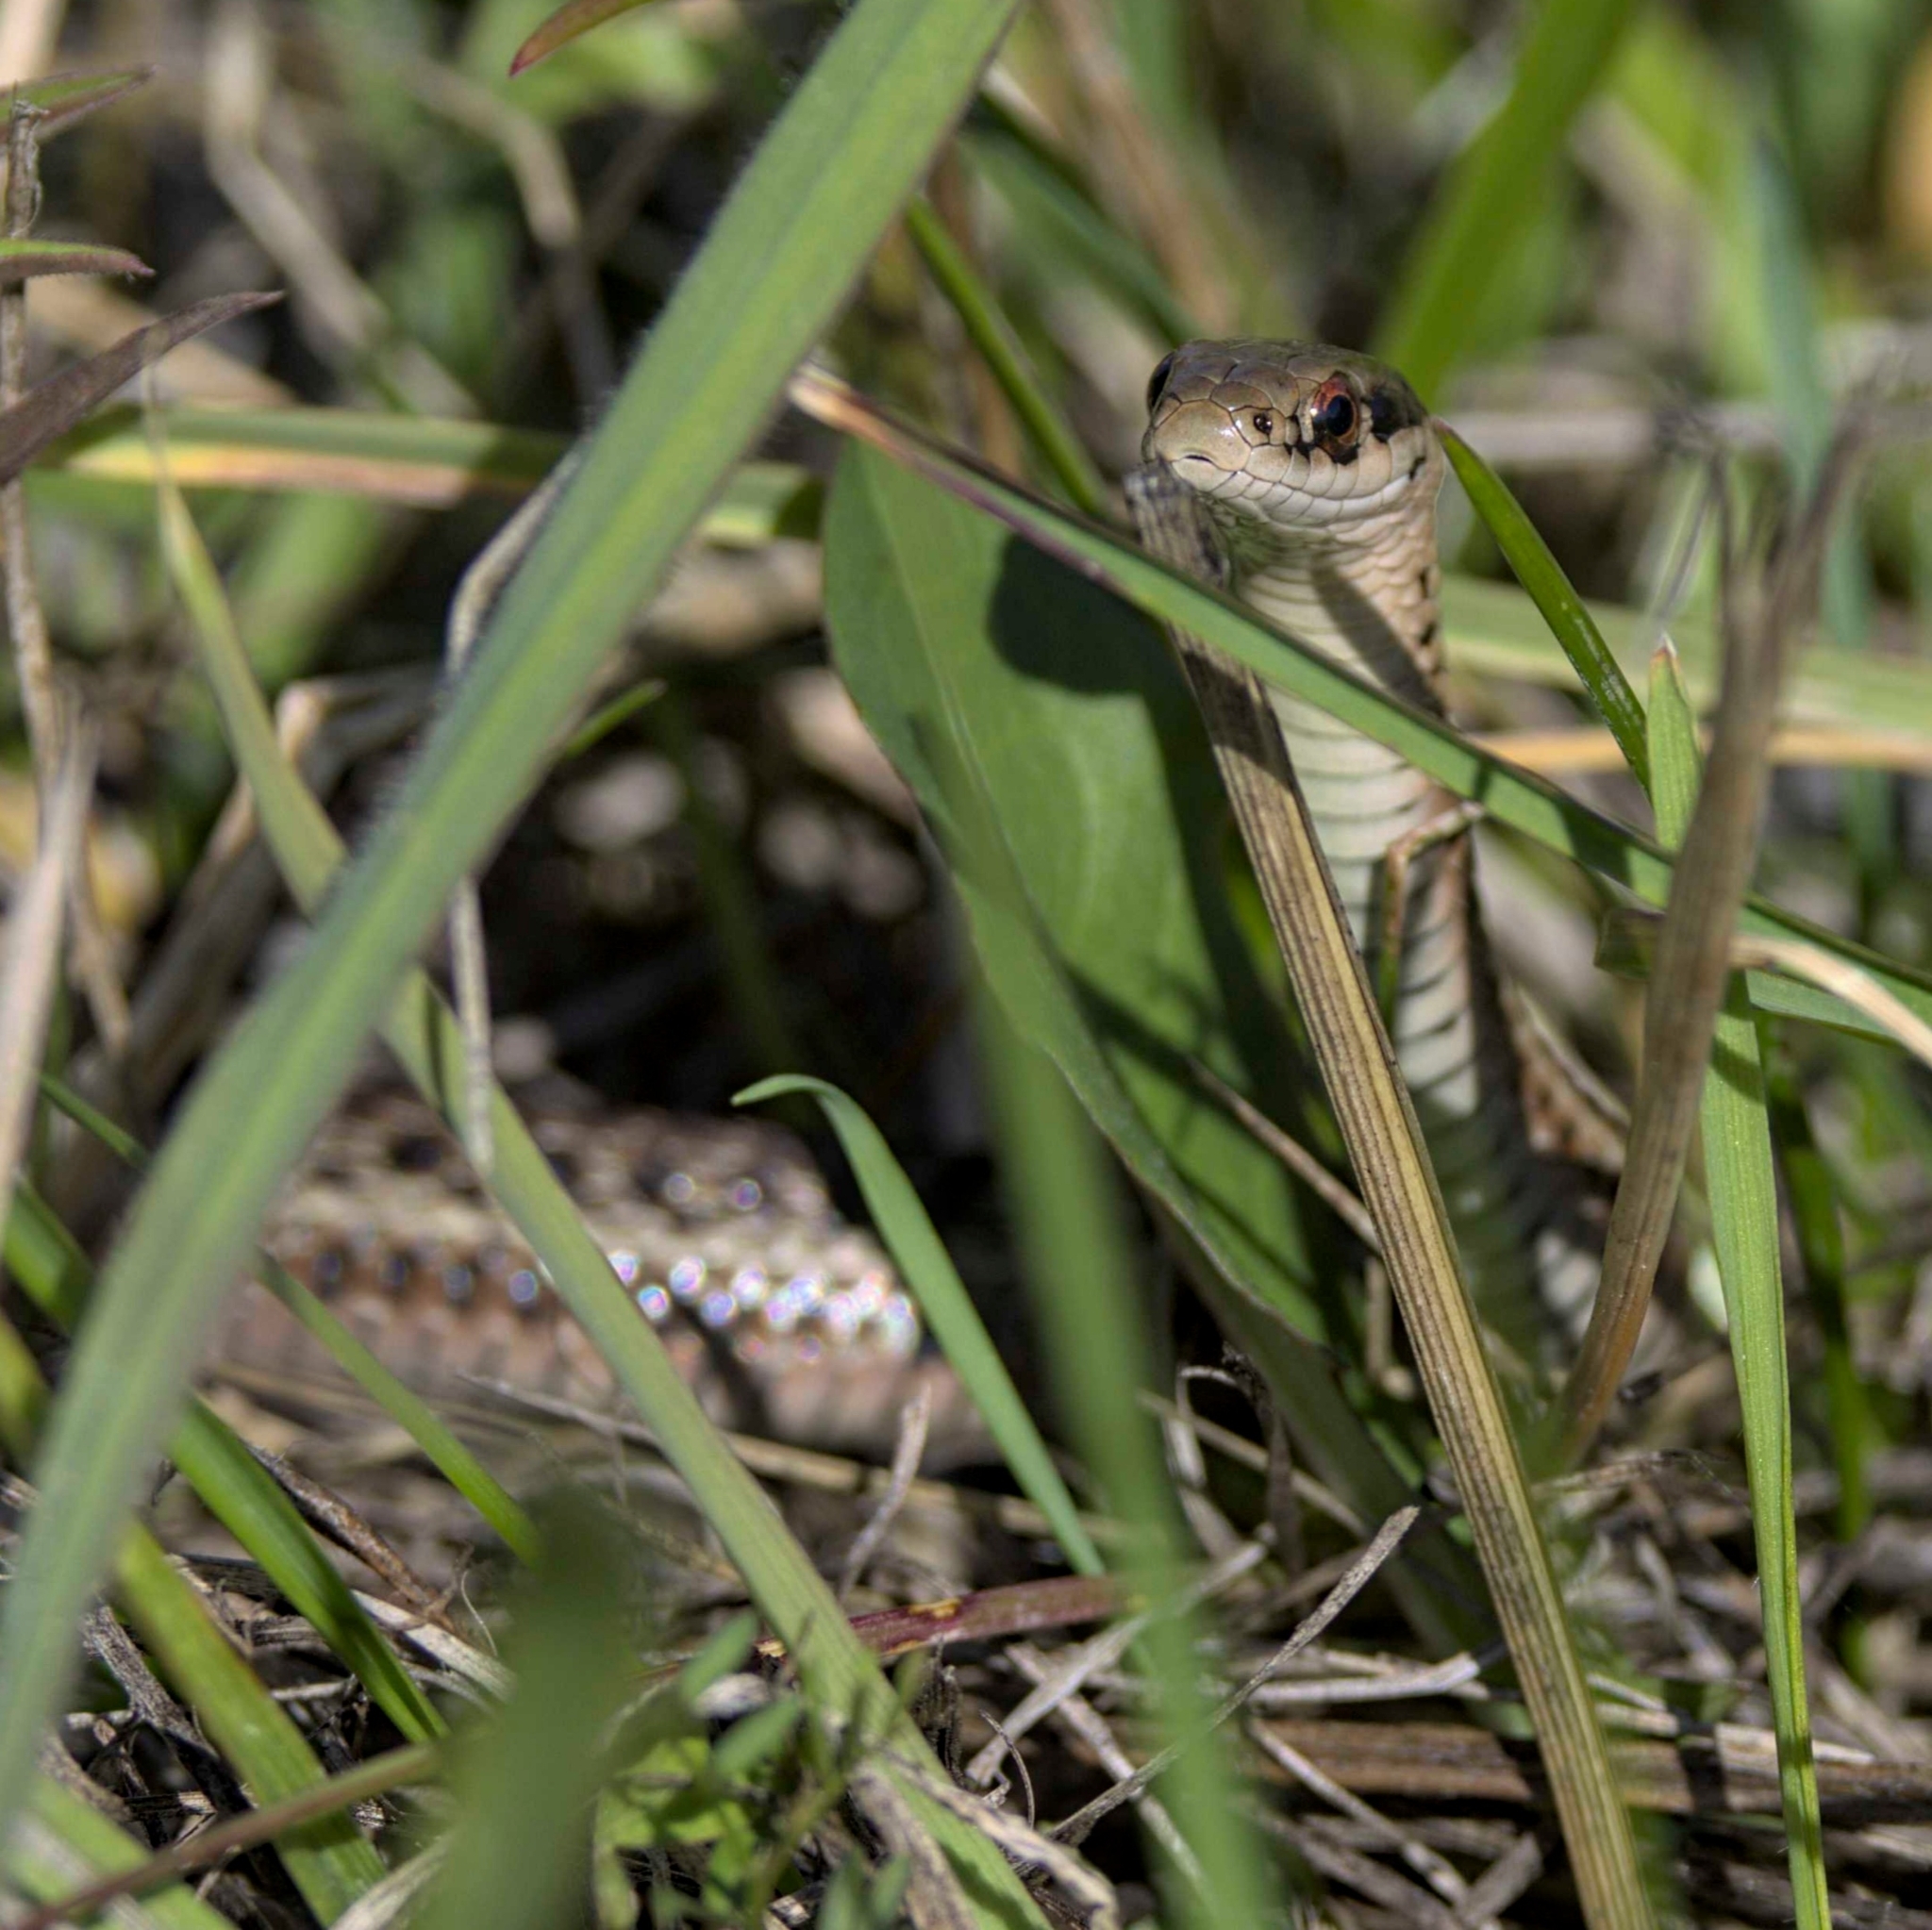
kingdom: Animalia
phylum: Chordata
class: Squamata
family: Colubridae
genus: Thamnophis
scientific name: Thamnophis ordinoides
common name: Northwestern garter snake
